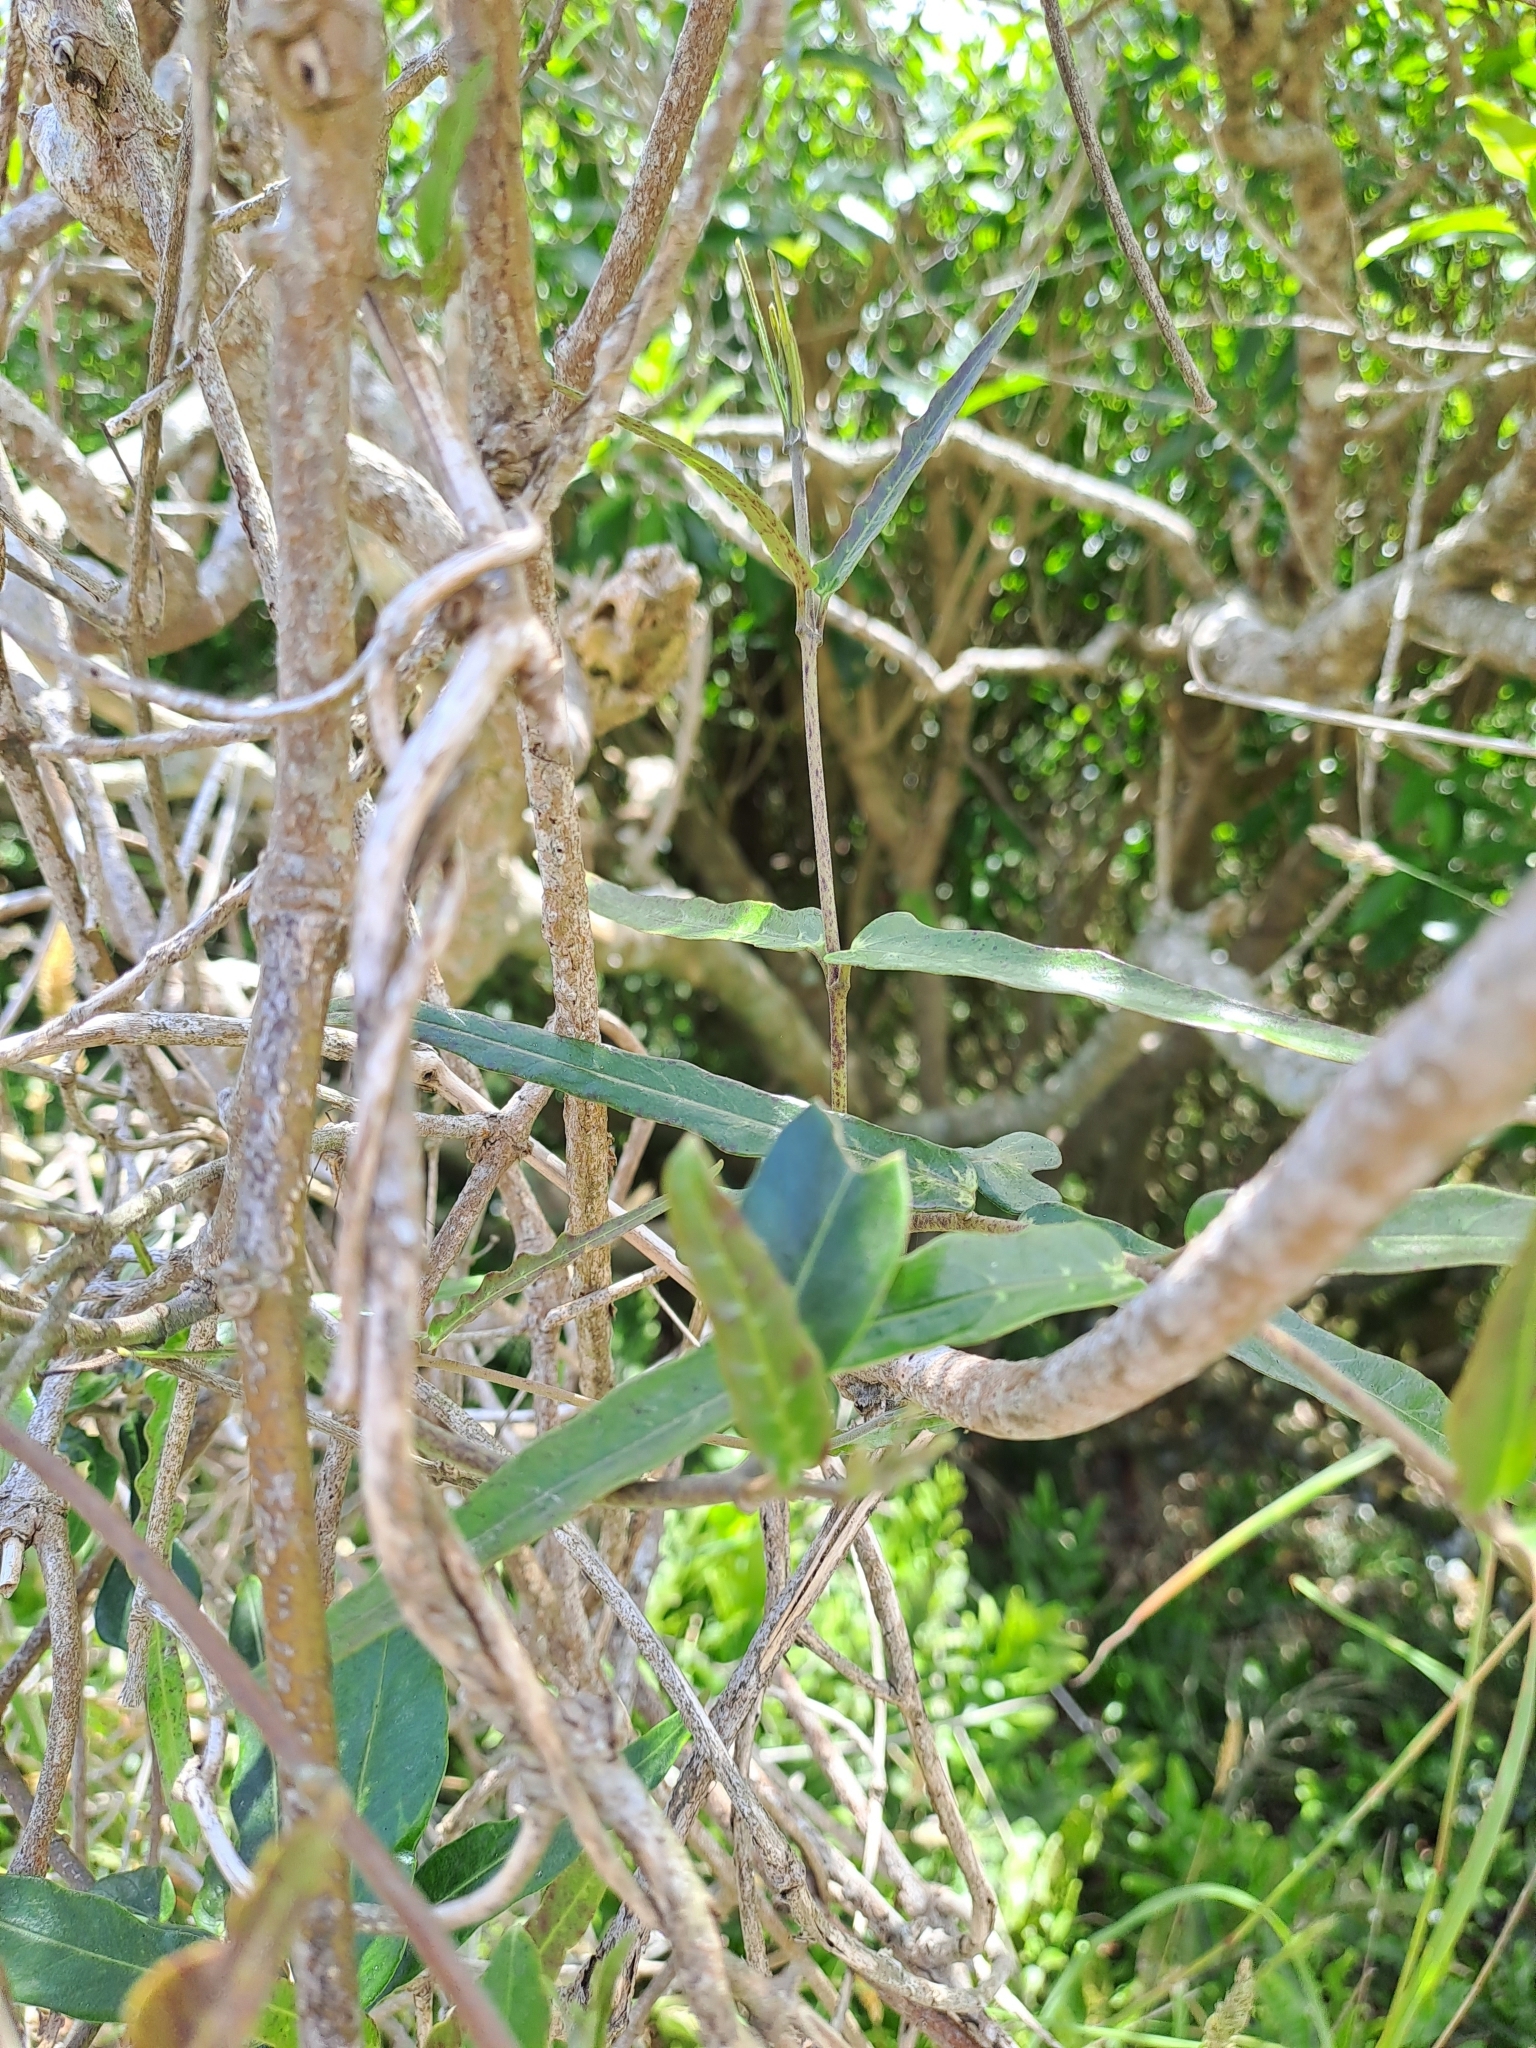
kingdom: Plantae
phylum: Tracheophyta
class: Magnoliopsida
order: Gentianales
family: Apocynaceae
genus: Parsonsia
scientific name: Parsonsia heterophylla
